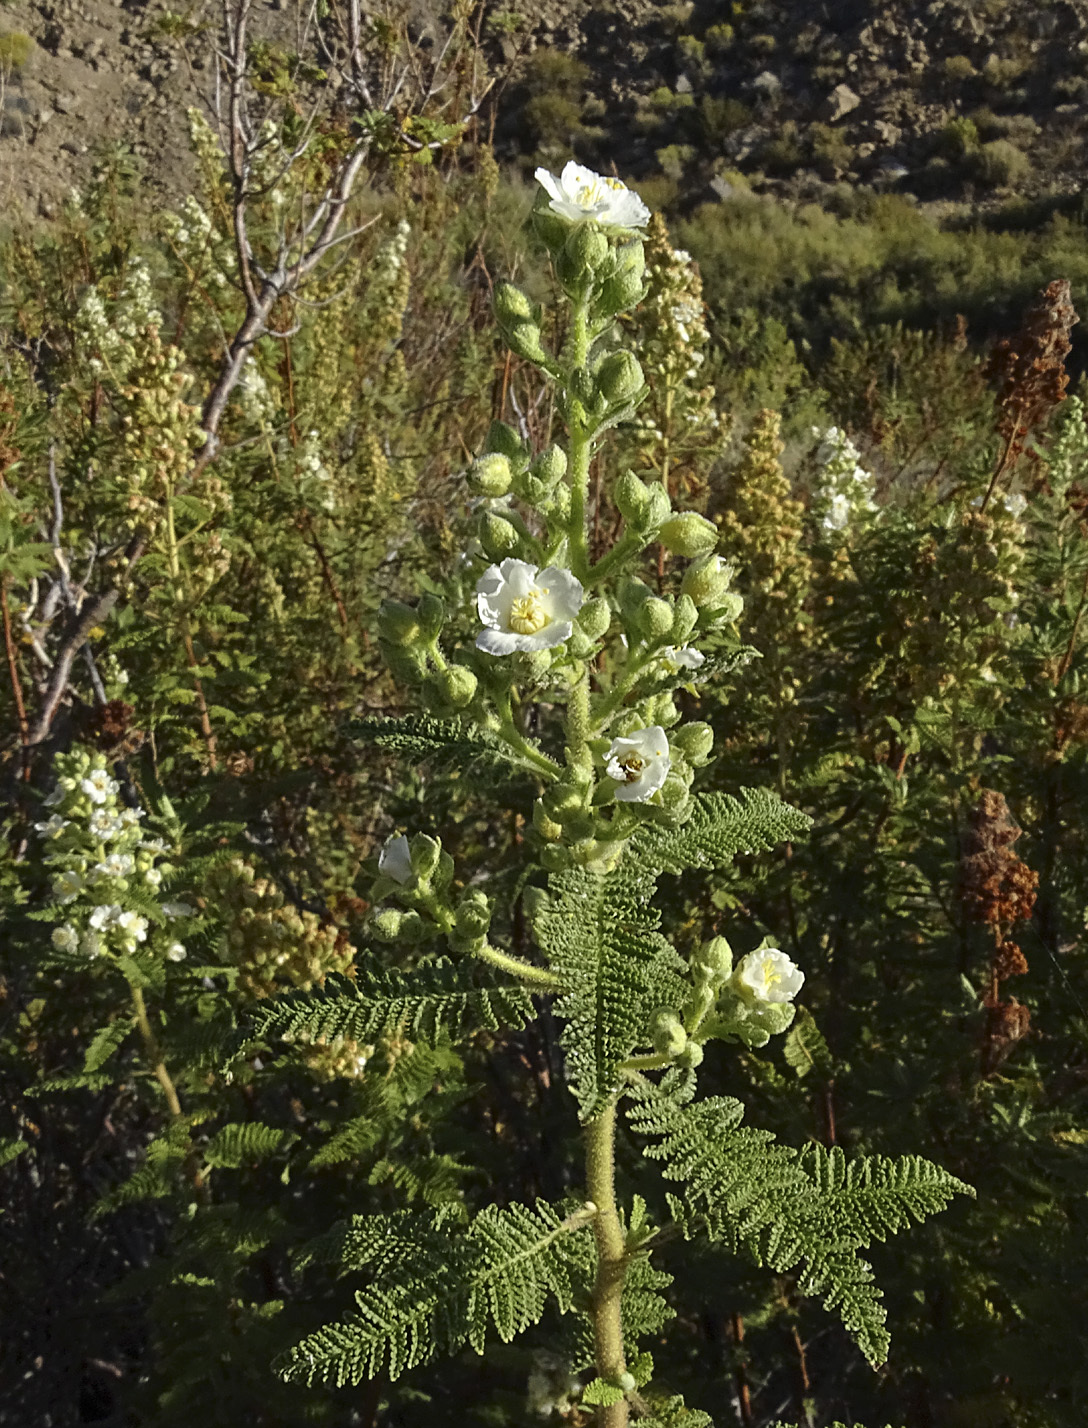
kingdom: Plantae
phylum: Tracheophyta
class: Magnoliopsida
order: Rosales
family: Rosaceae
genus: Chamaebatiaria
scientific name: Chamaebatiaria millefolium
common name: Fernbush
